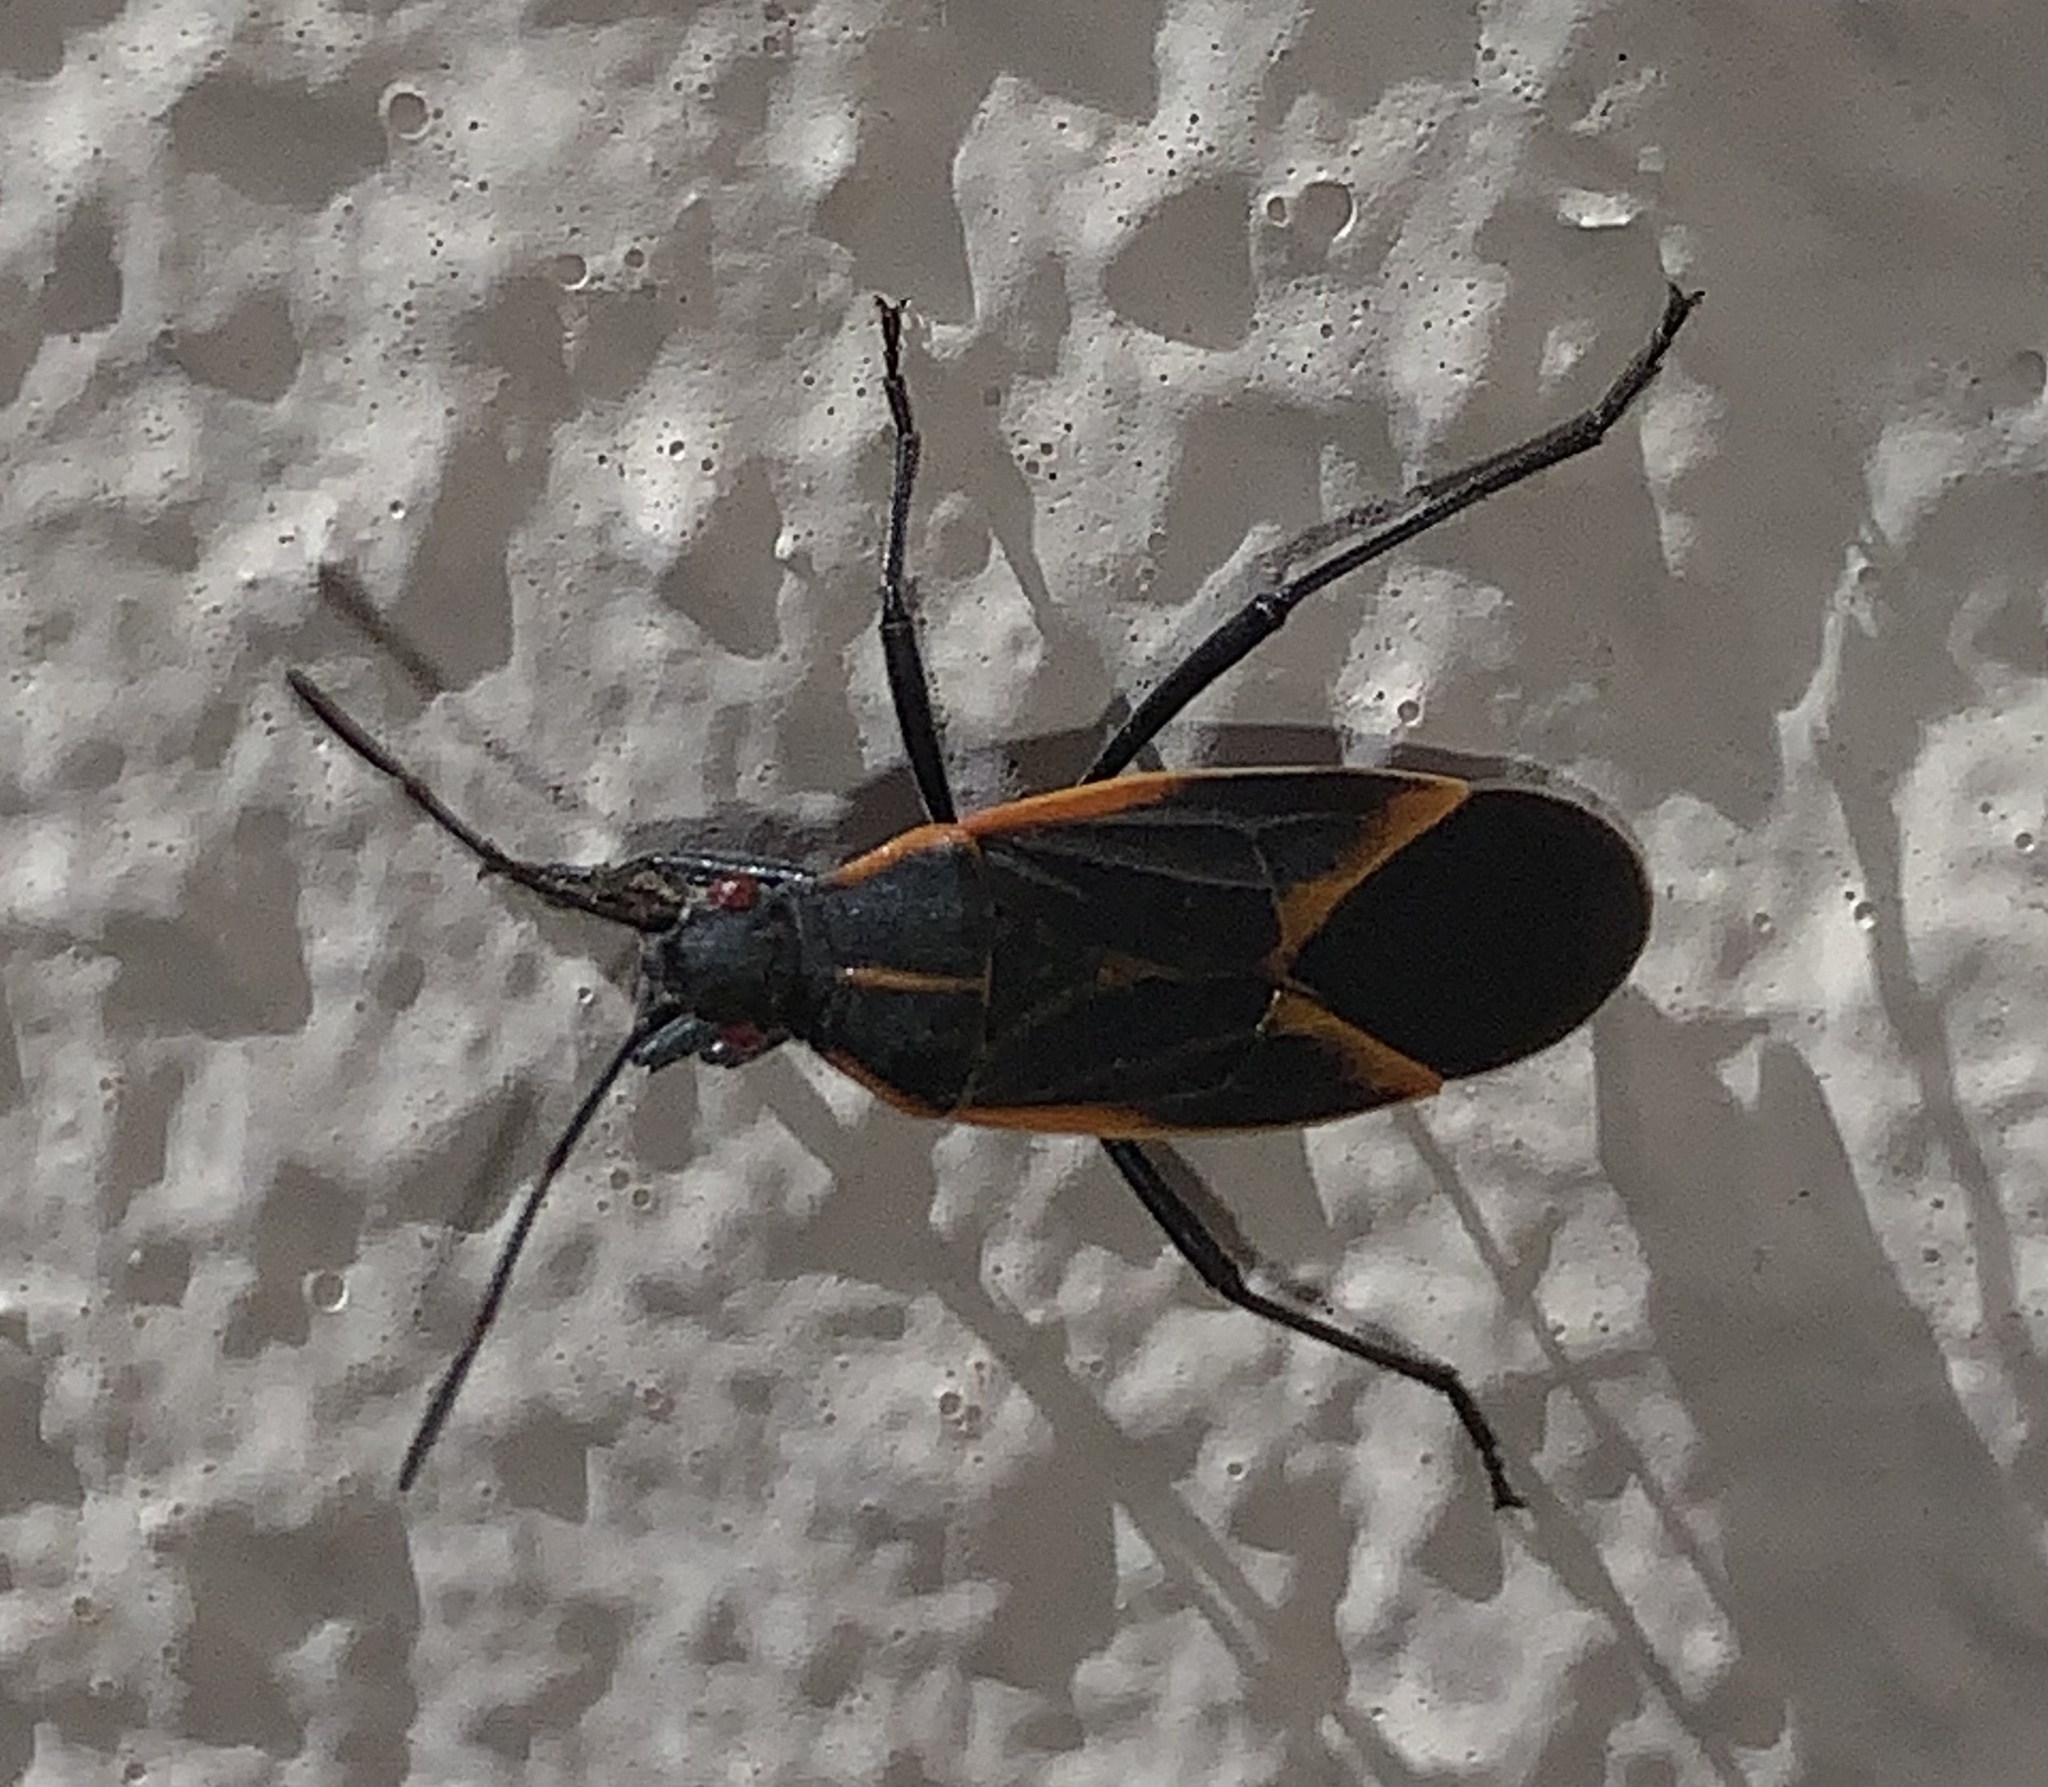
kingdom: Animalia
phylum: Arthropoda
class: Insecta
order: Hemiptera
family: Rhopalidae
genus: Boisea
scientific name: Boisea trivittata
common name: Boxelder bug
